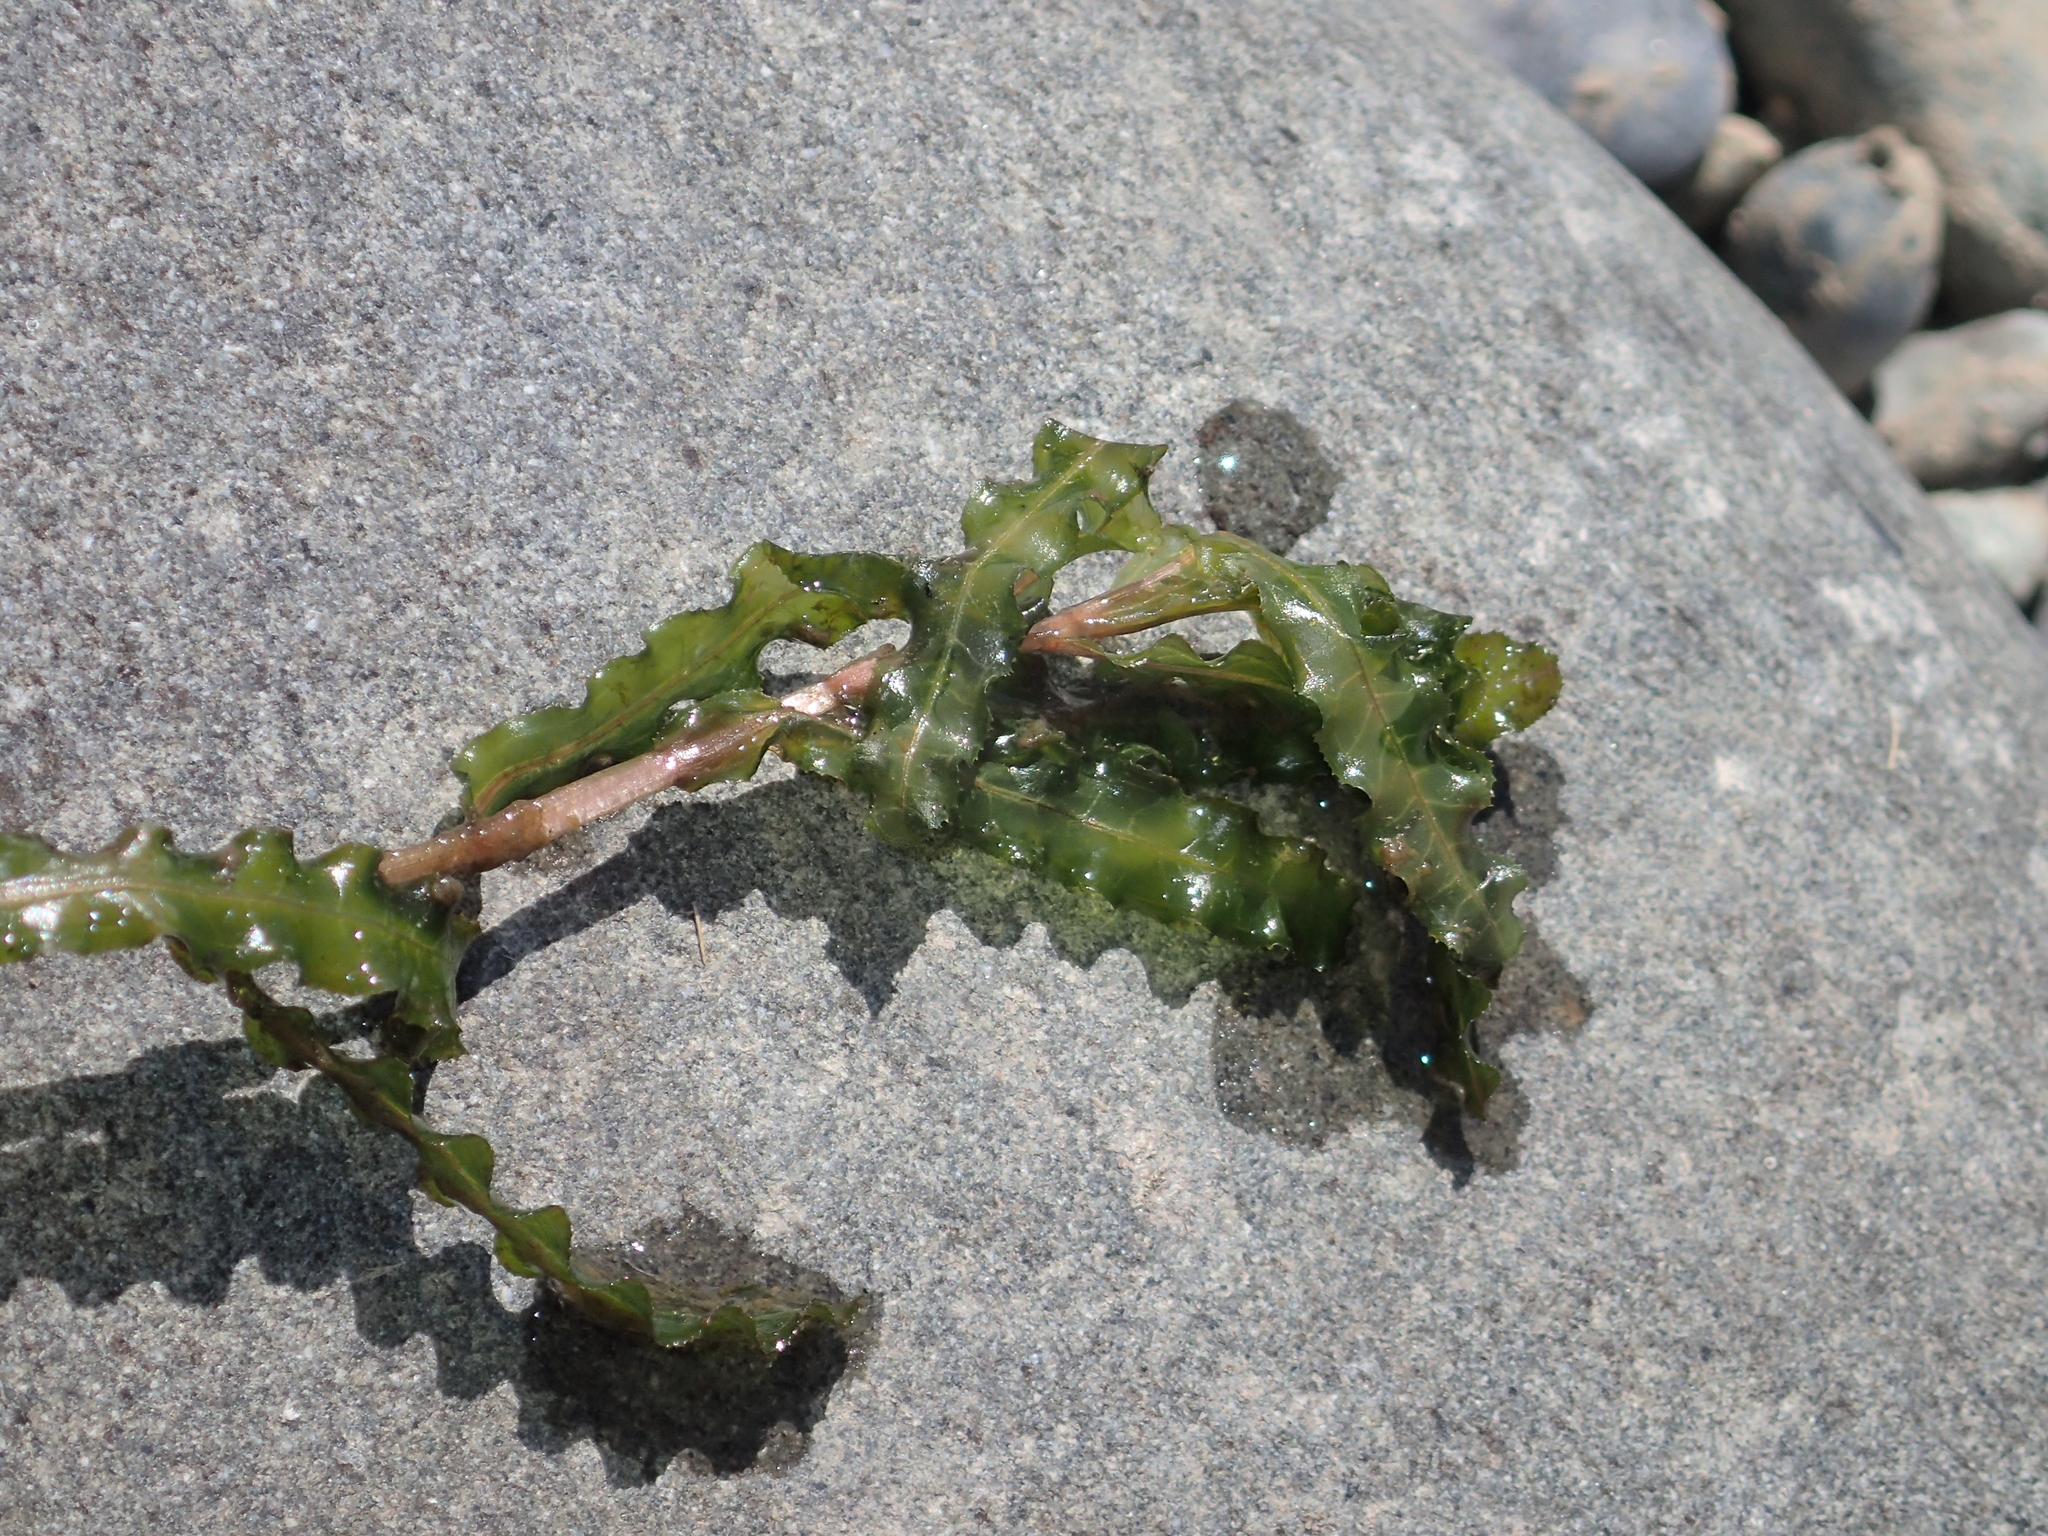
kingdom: Plantae
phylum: Tracheophyta
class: Liliopsida
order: Alismatales
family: Potamogetonaceae
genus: Potamogeton
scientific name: Potamogeton crispus
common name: Curled pondweed
